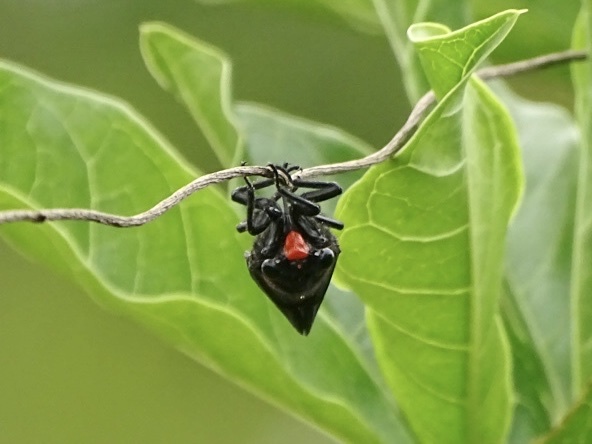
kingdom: Animalia
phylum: Arthropoda
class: Insecta
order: Hemiptera
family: Cicadidae
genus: Huechys
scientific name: Huechys sanguinea
